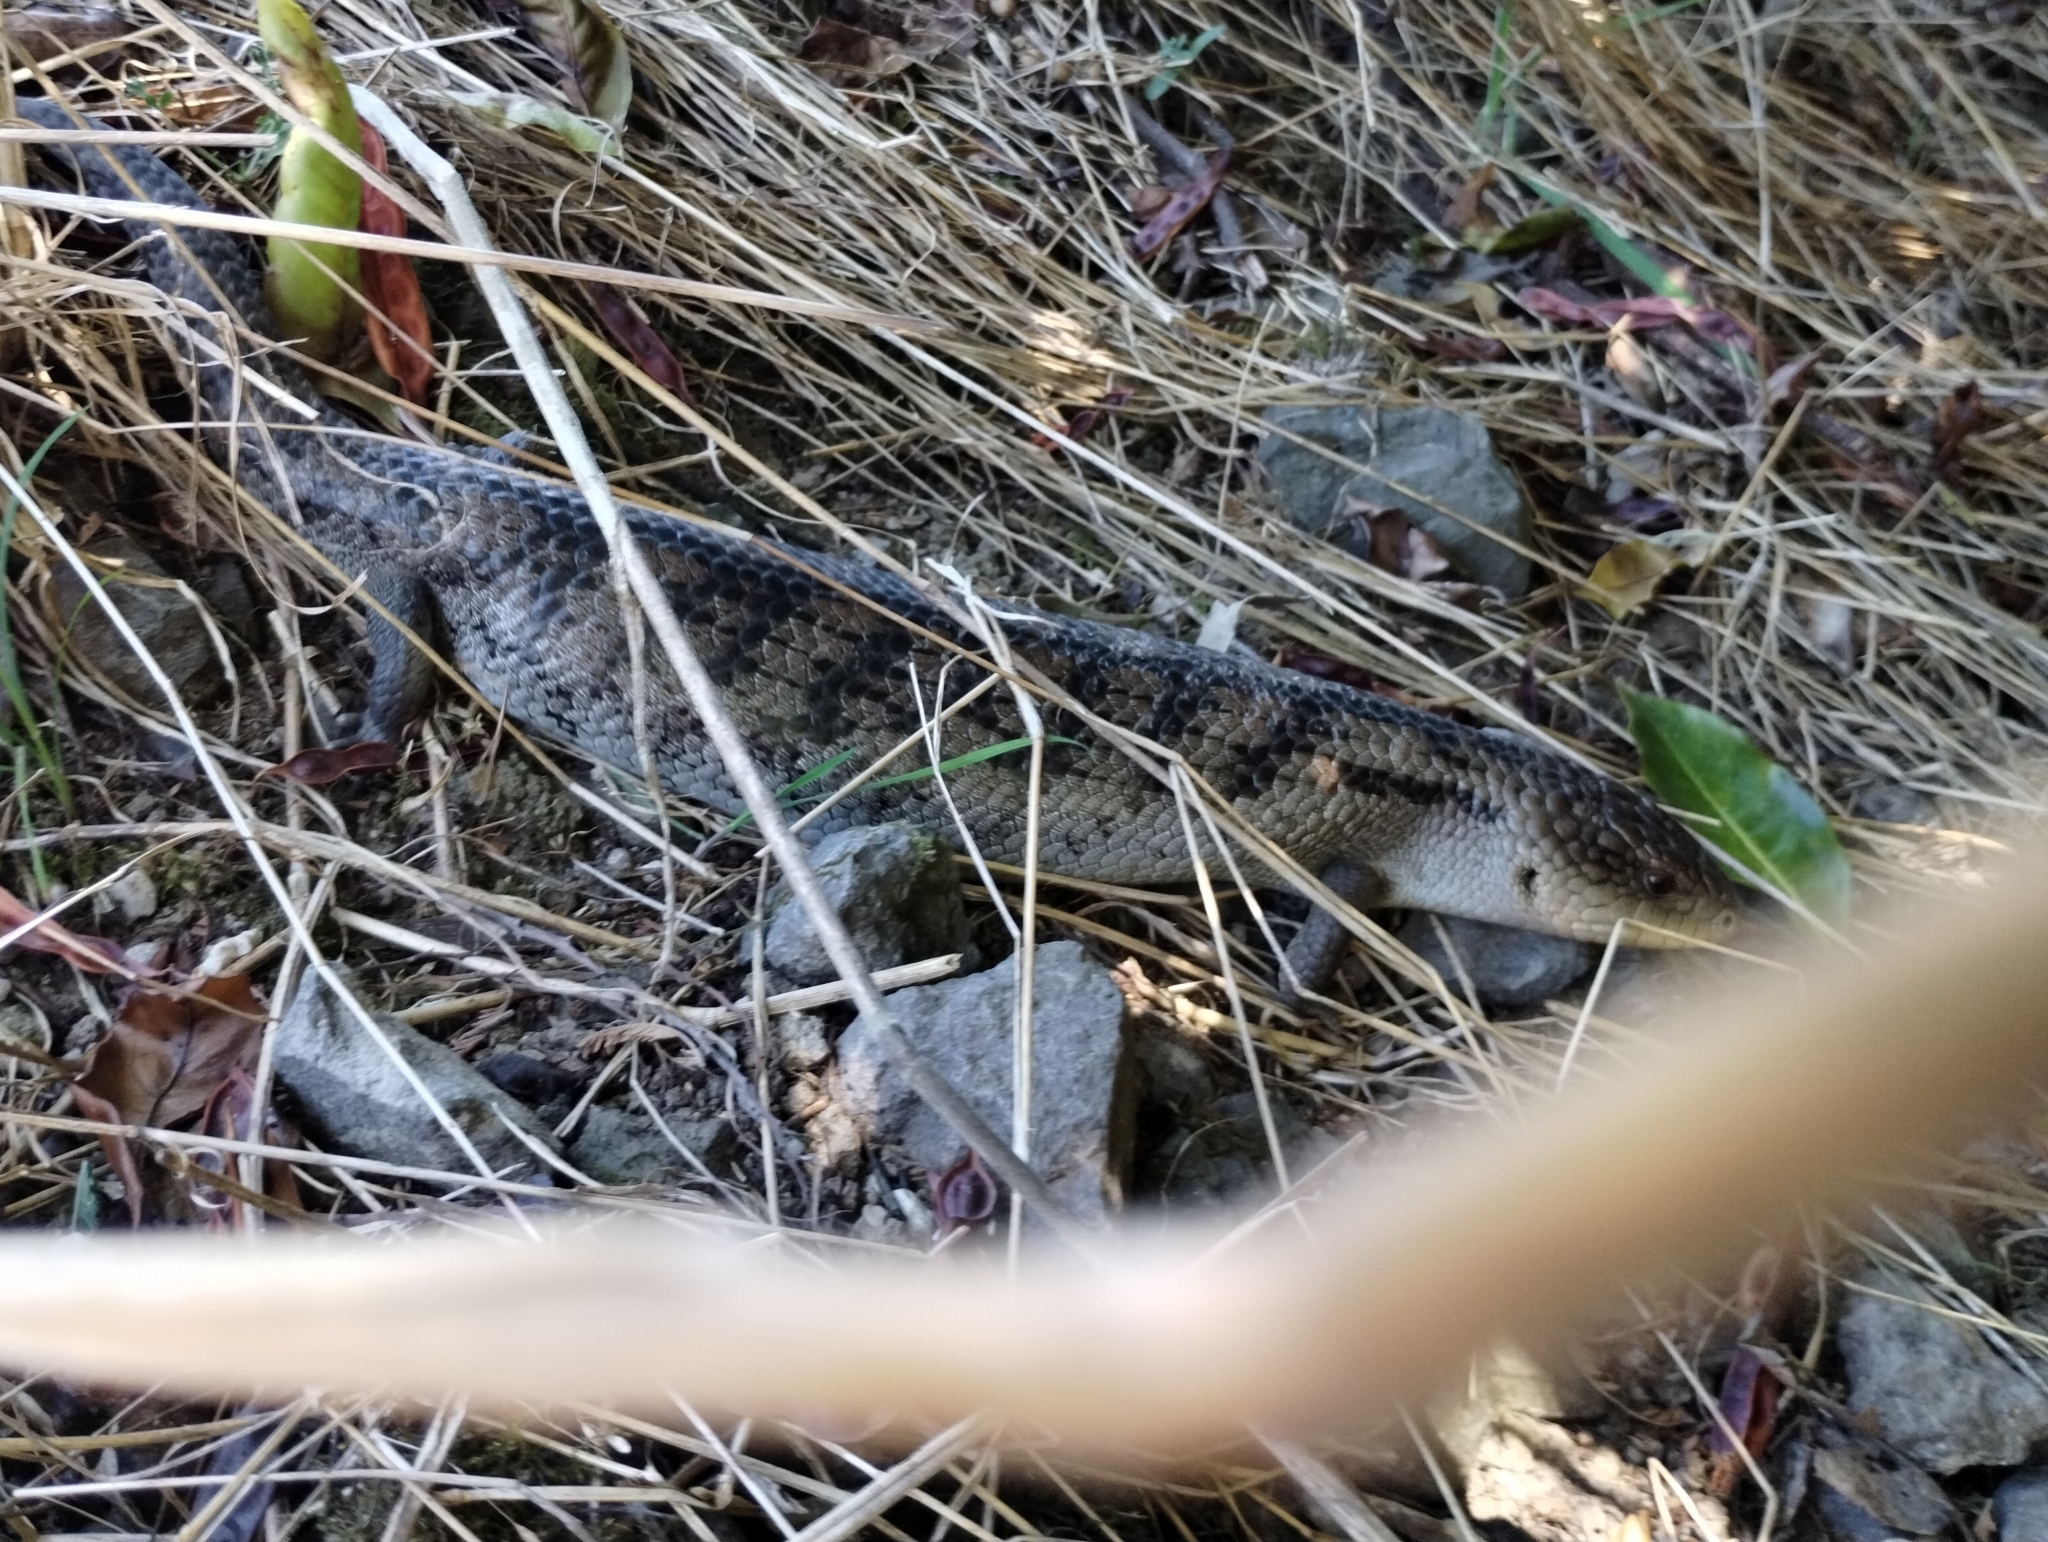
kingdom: Animalia
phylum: Chordata
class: Squamata
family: Scincidae
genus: Tiliqua
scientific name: Tiliqua nigrolutea
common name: Blotched blue-tongued lizard
